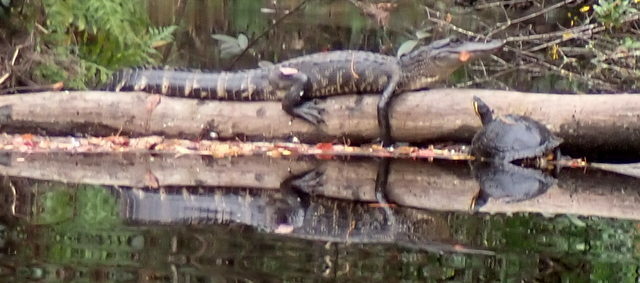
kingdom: Animalia
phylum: Chordata
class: Crocodylia
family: Alligatoridae
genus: Alligator
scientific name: Alligator mississippiensis
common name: American alligator
